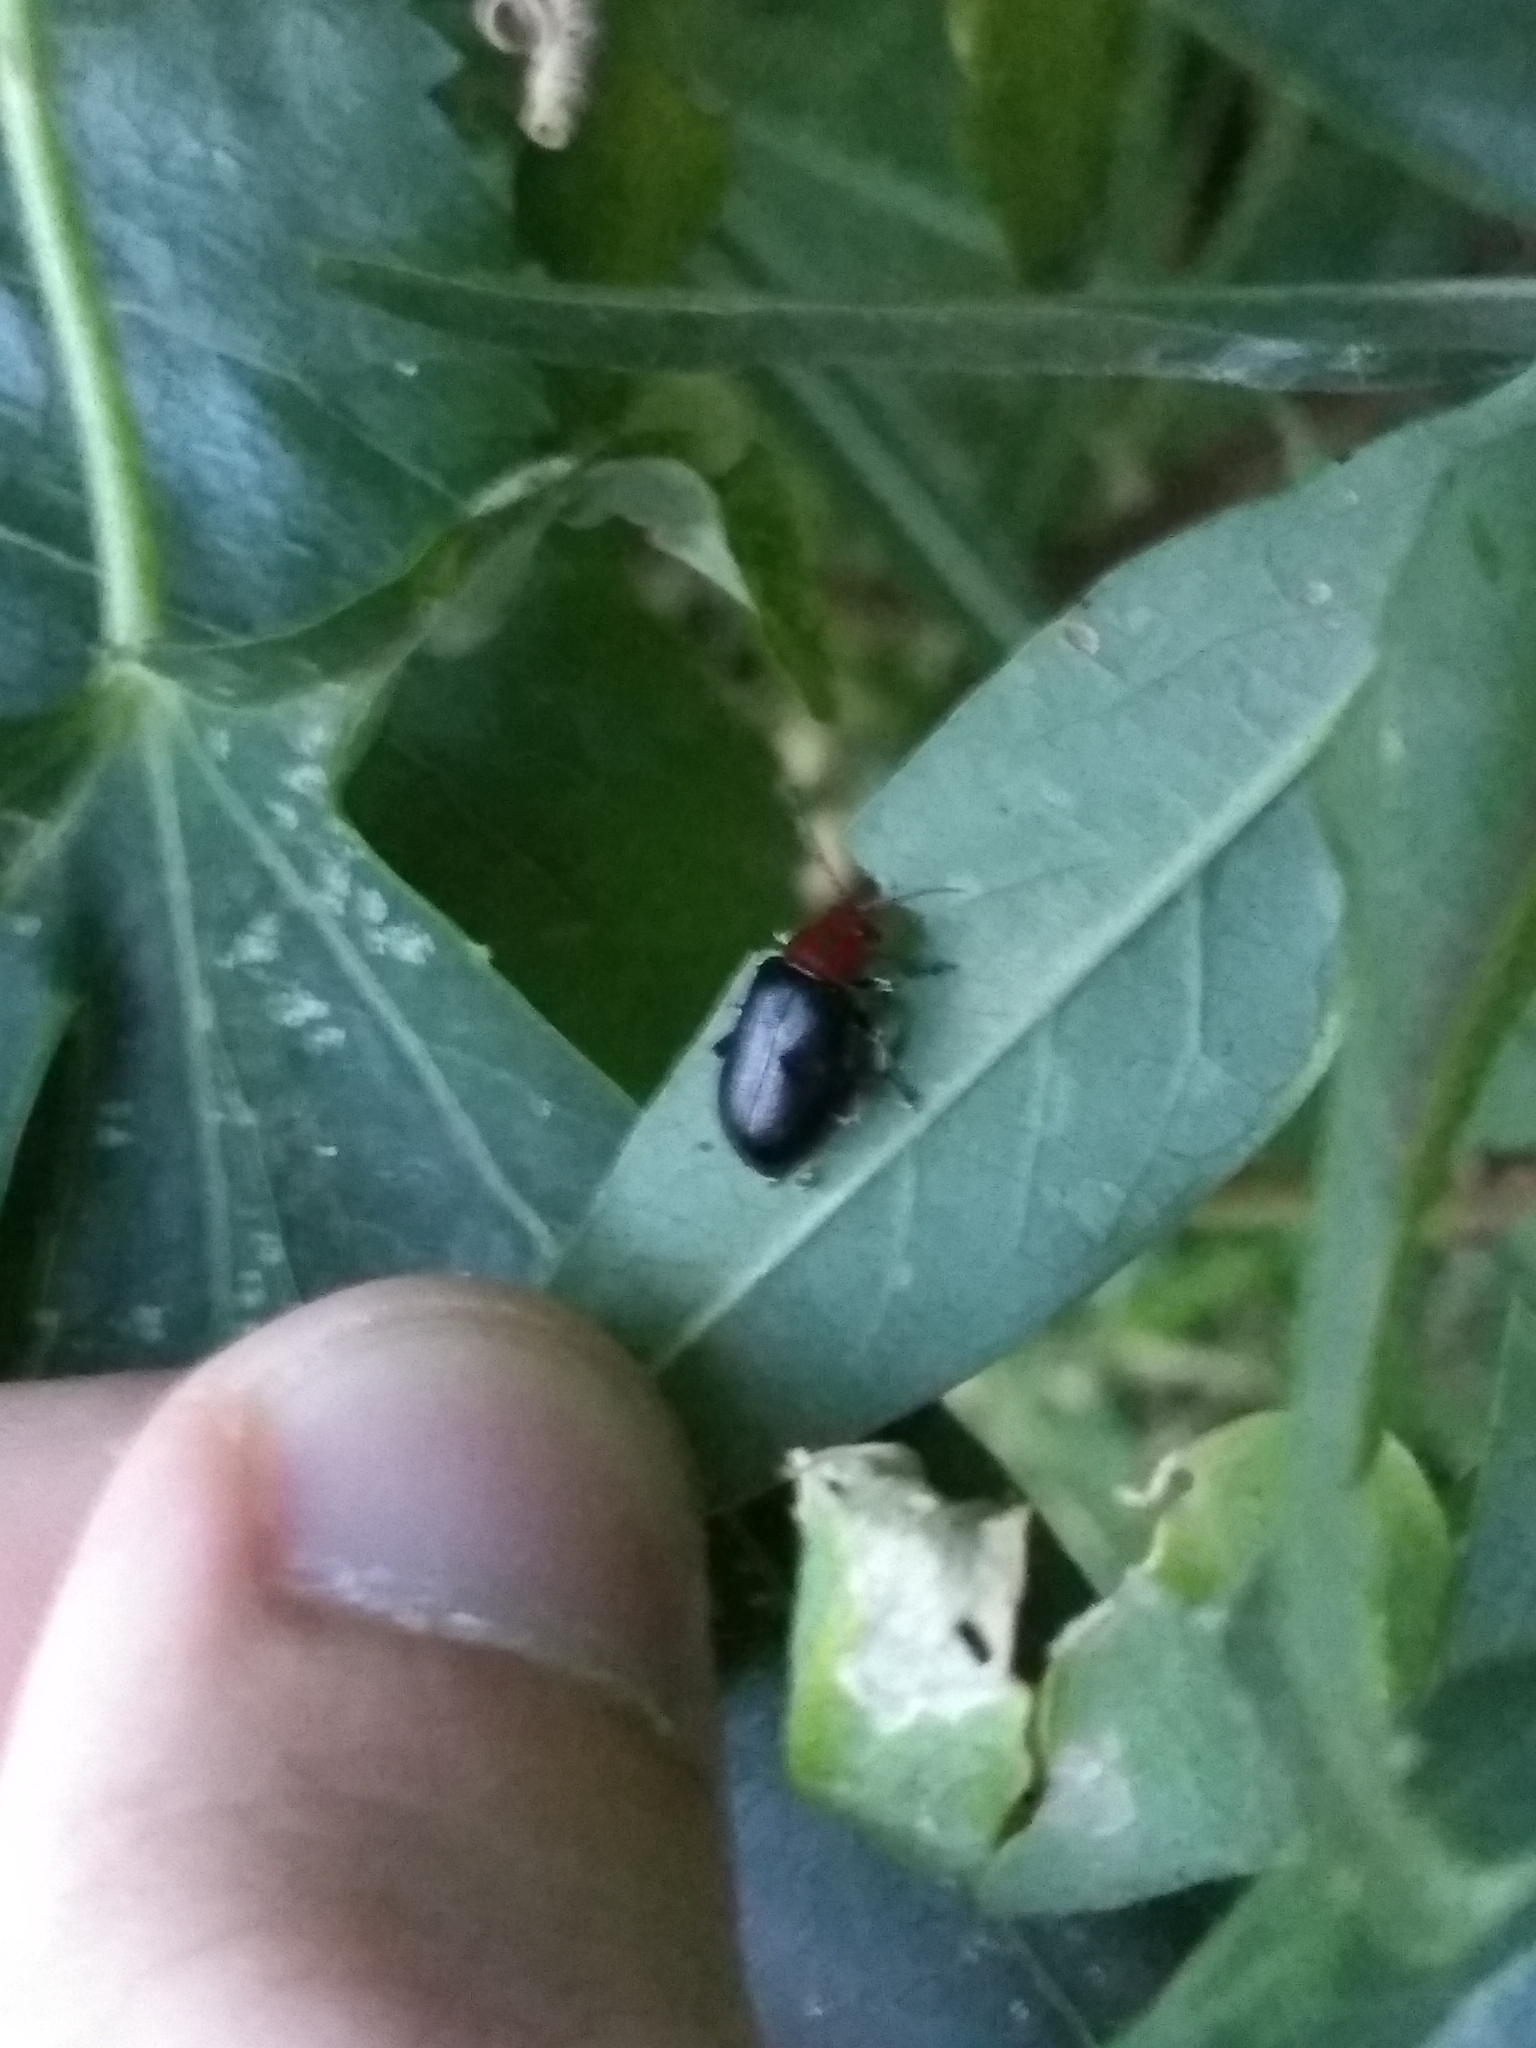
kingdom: Animalia
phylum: Arthropoda
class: Insecta
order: Coleoptera
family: Chrysomelidae
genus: Cacoscelis
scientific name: Cacoscelis
